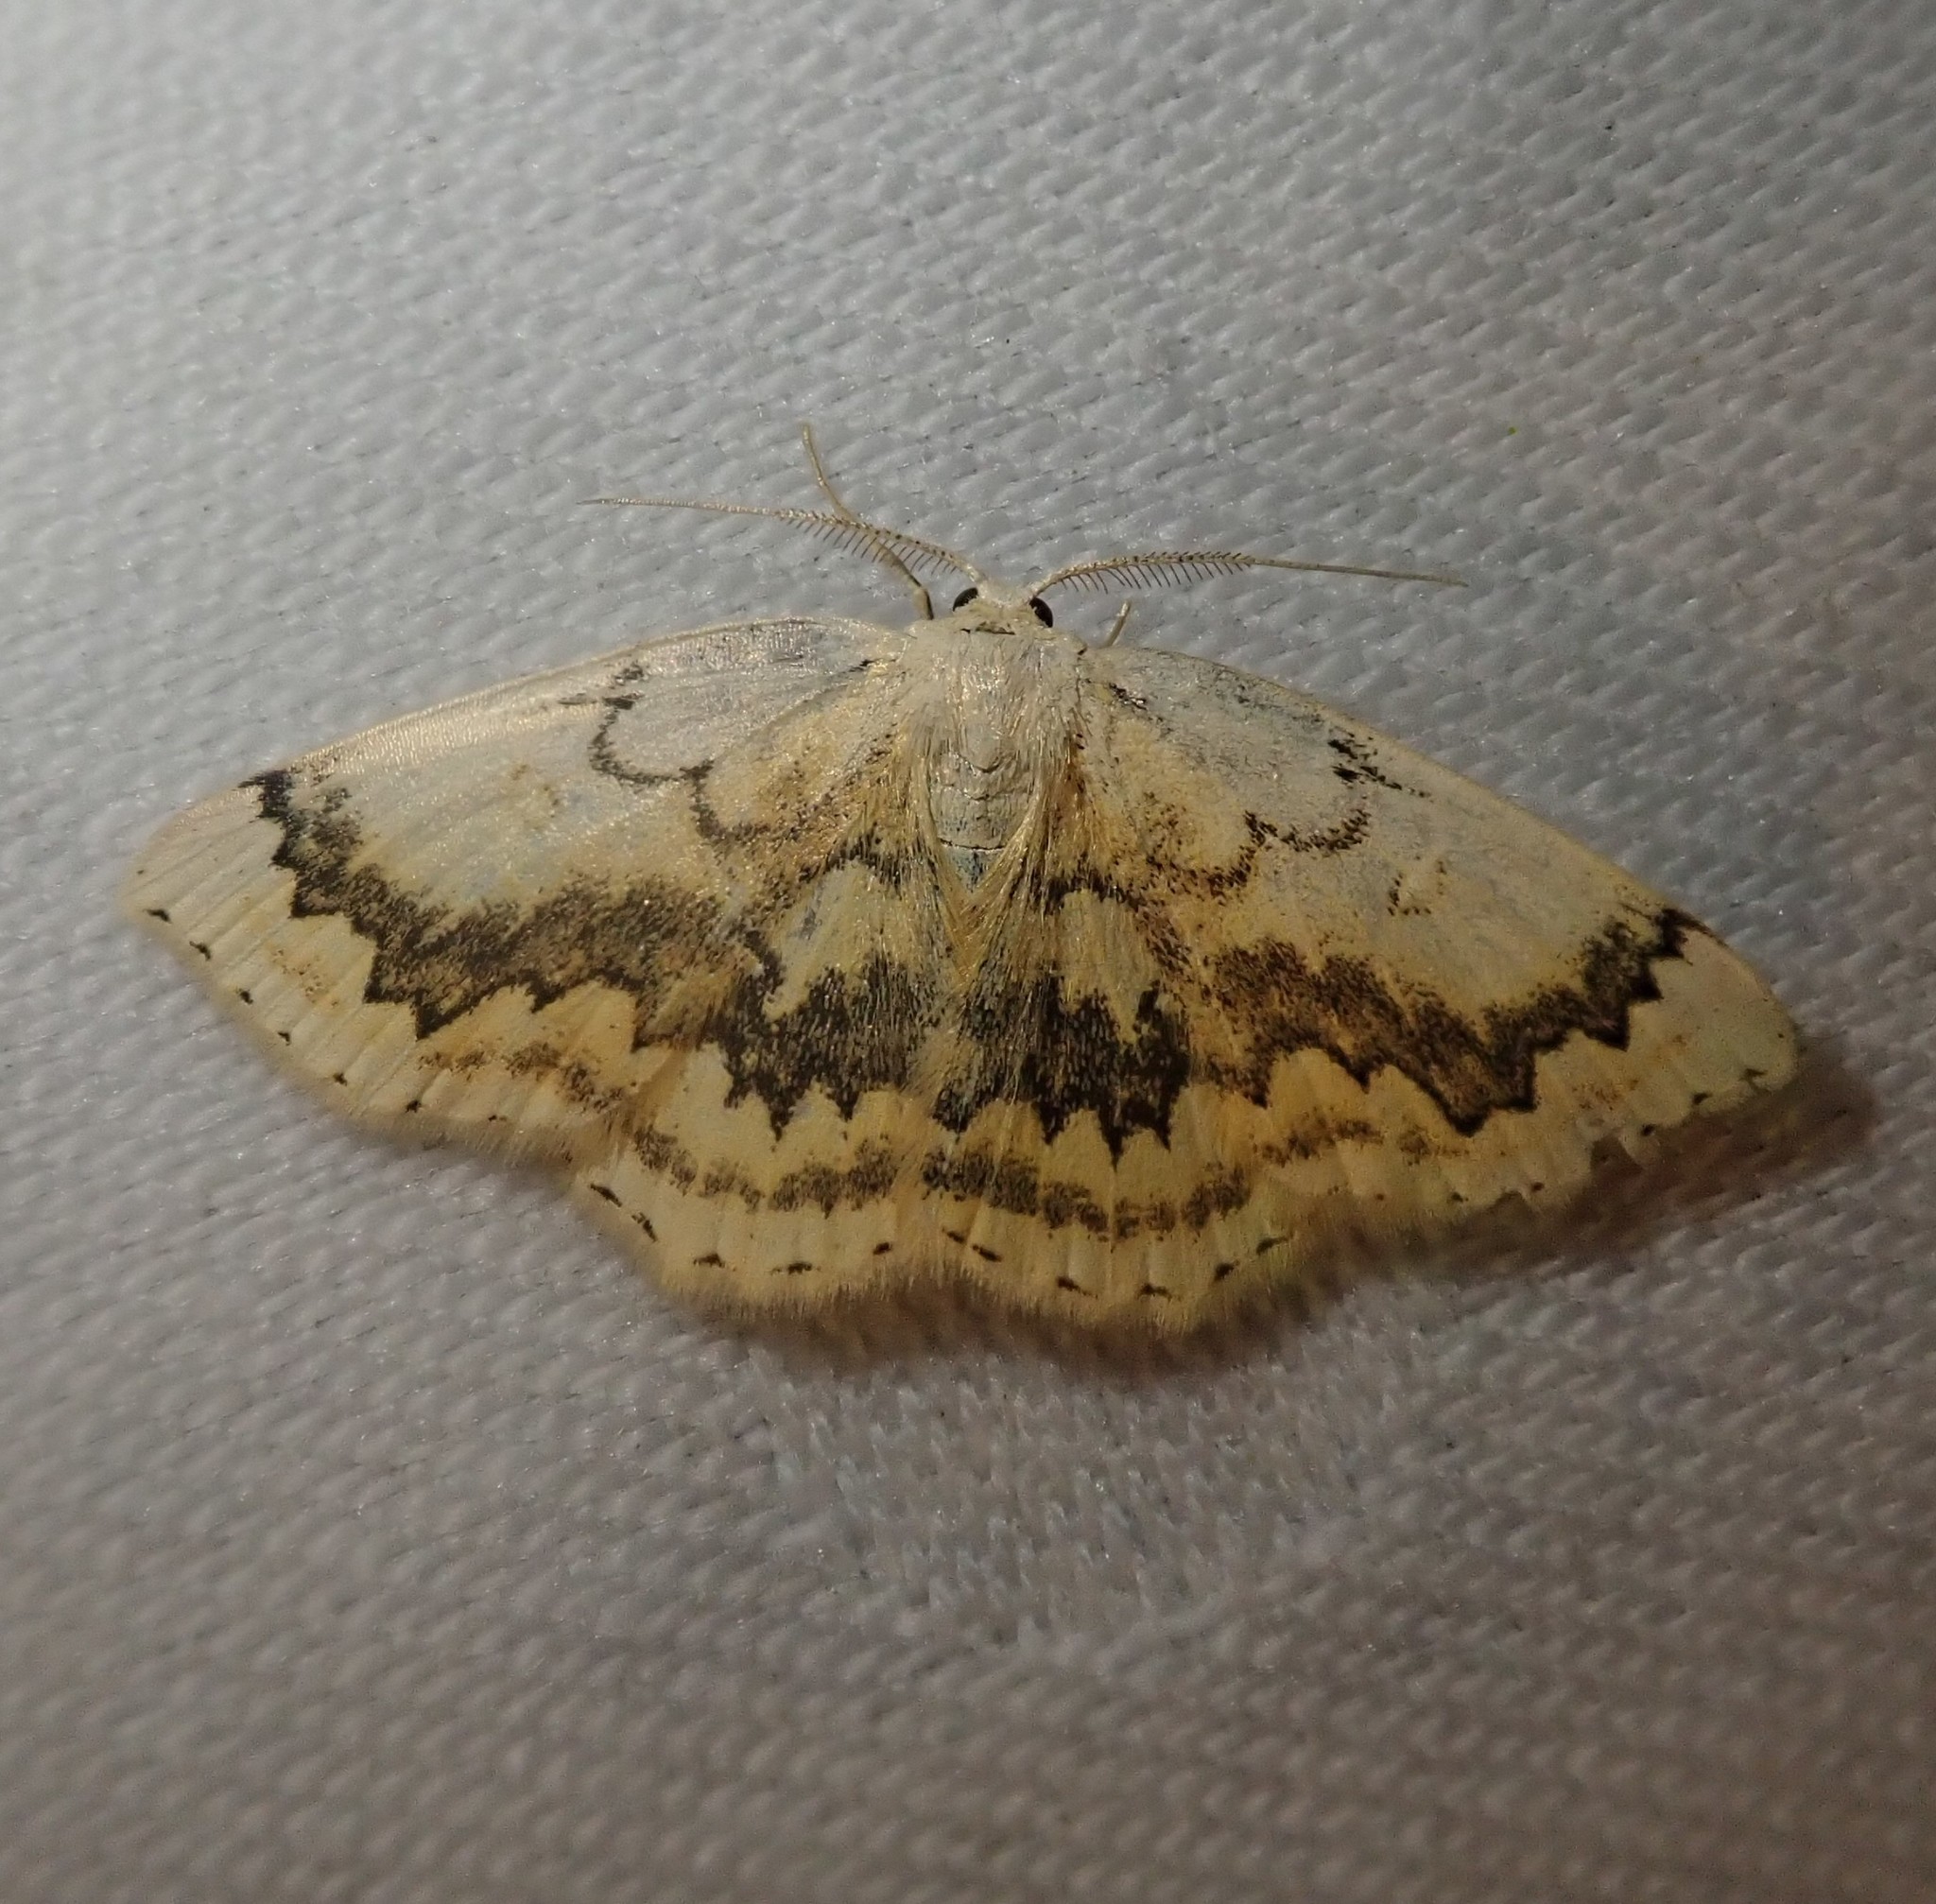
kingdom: Animalia
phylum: Arthropoda
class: Insecta
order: Lepidoptera
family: Geometridae
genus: Cyclophora
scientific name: Cyclophora annularia
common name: Mocha
